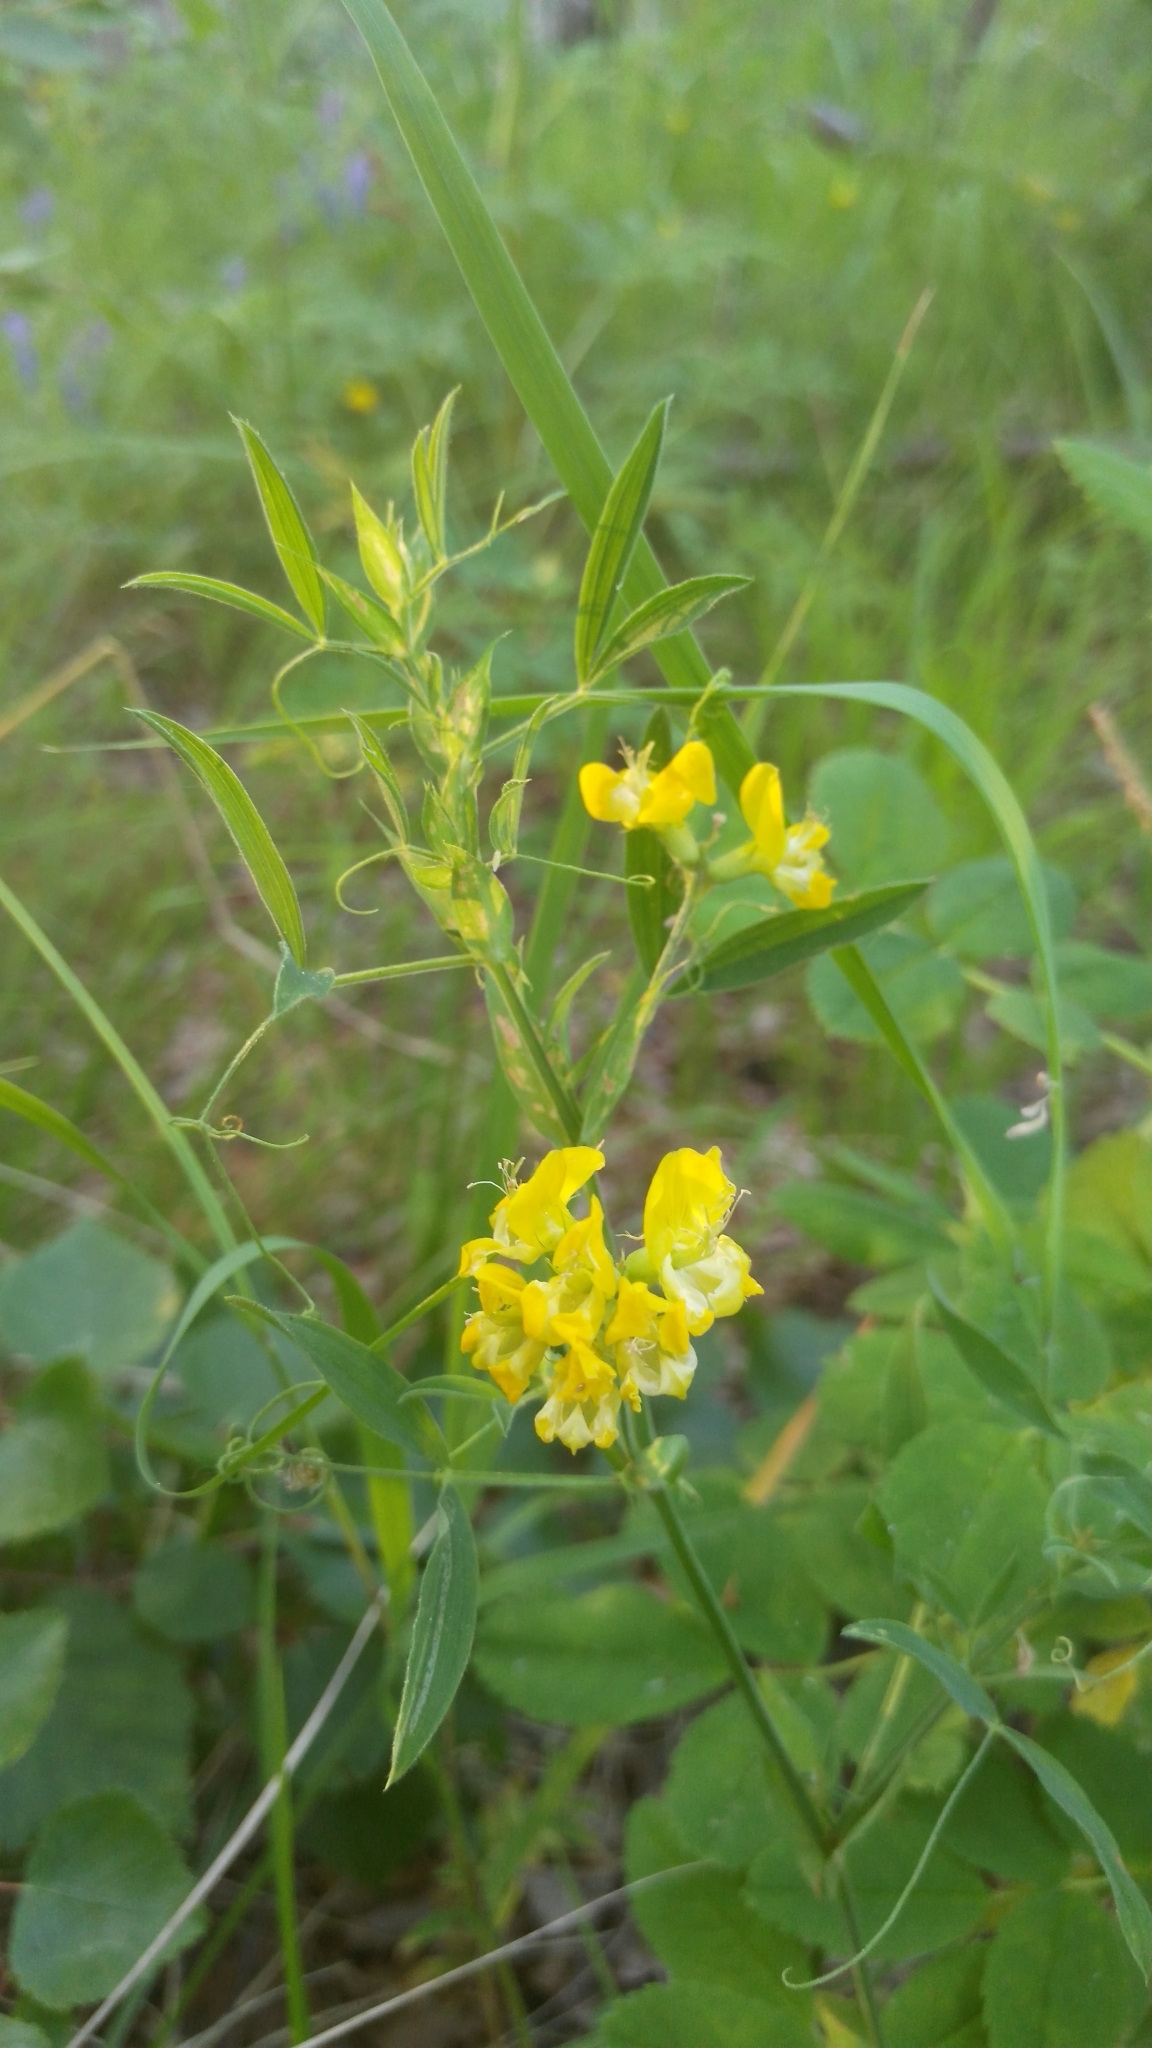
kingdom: Plantae
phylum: Tracheophyta
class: Magnoliopsida
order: Fabales
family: Fabaceae
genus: Lathyrus
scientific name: Lathyrus pratensis
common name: Meadow vetchling
